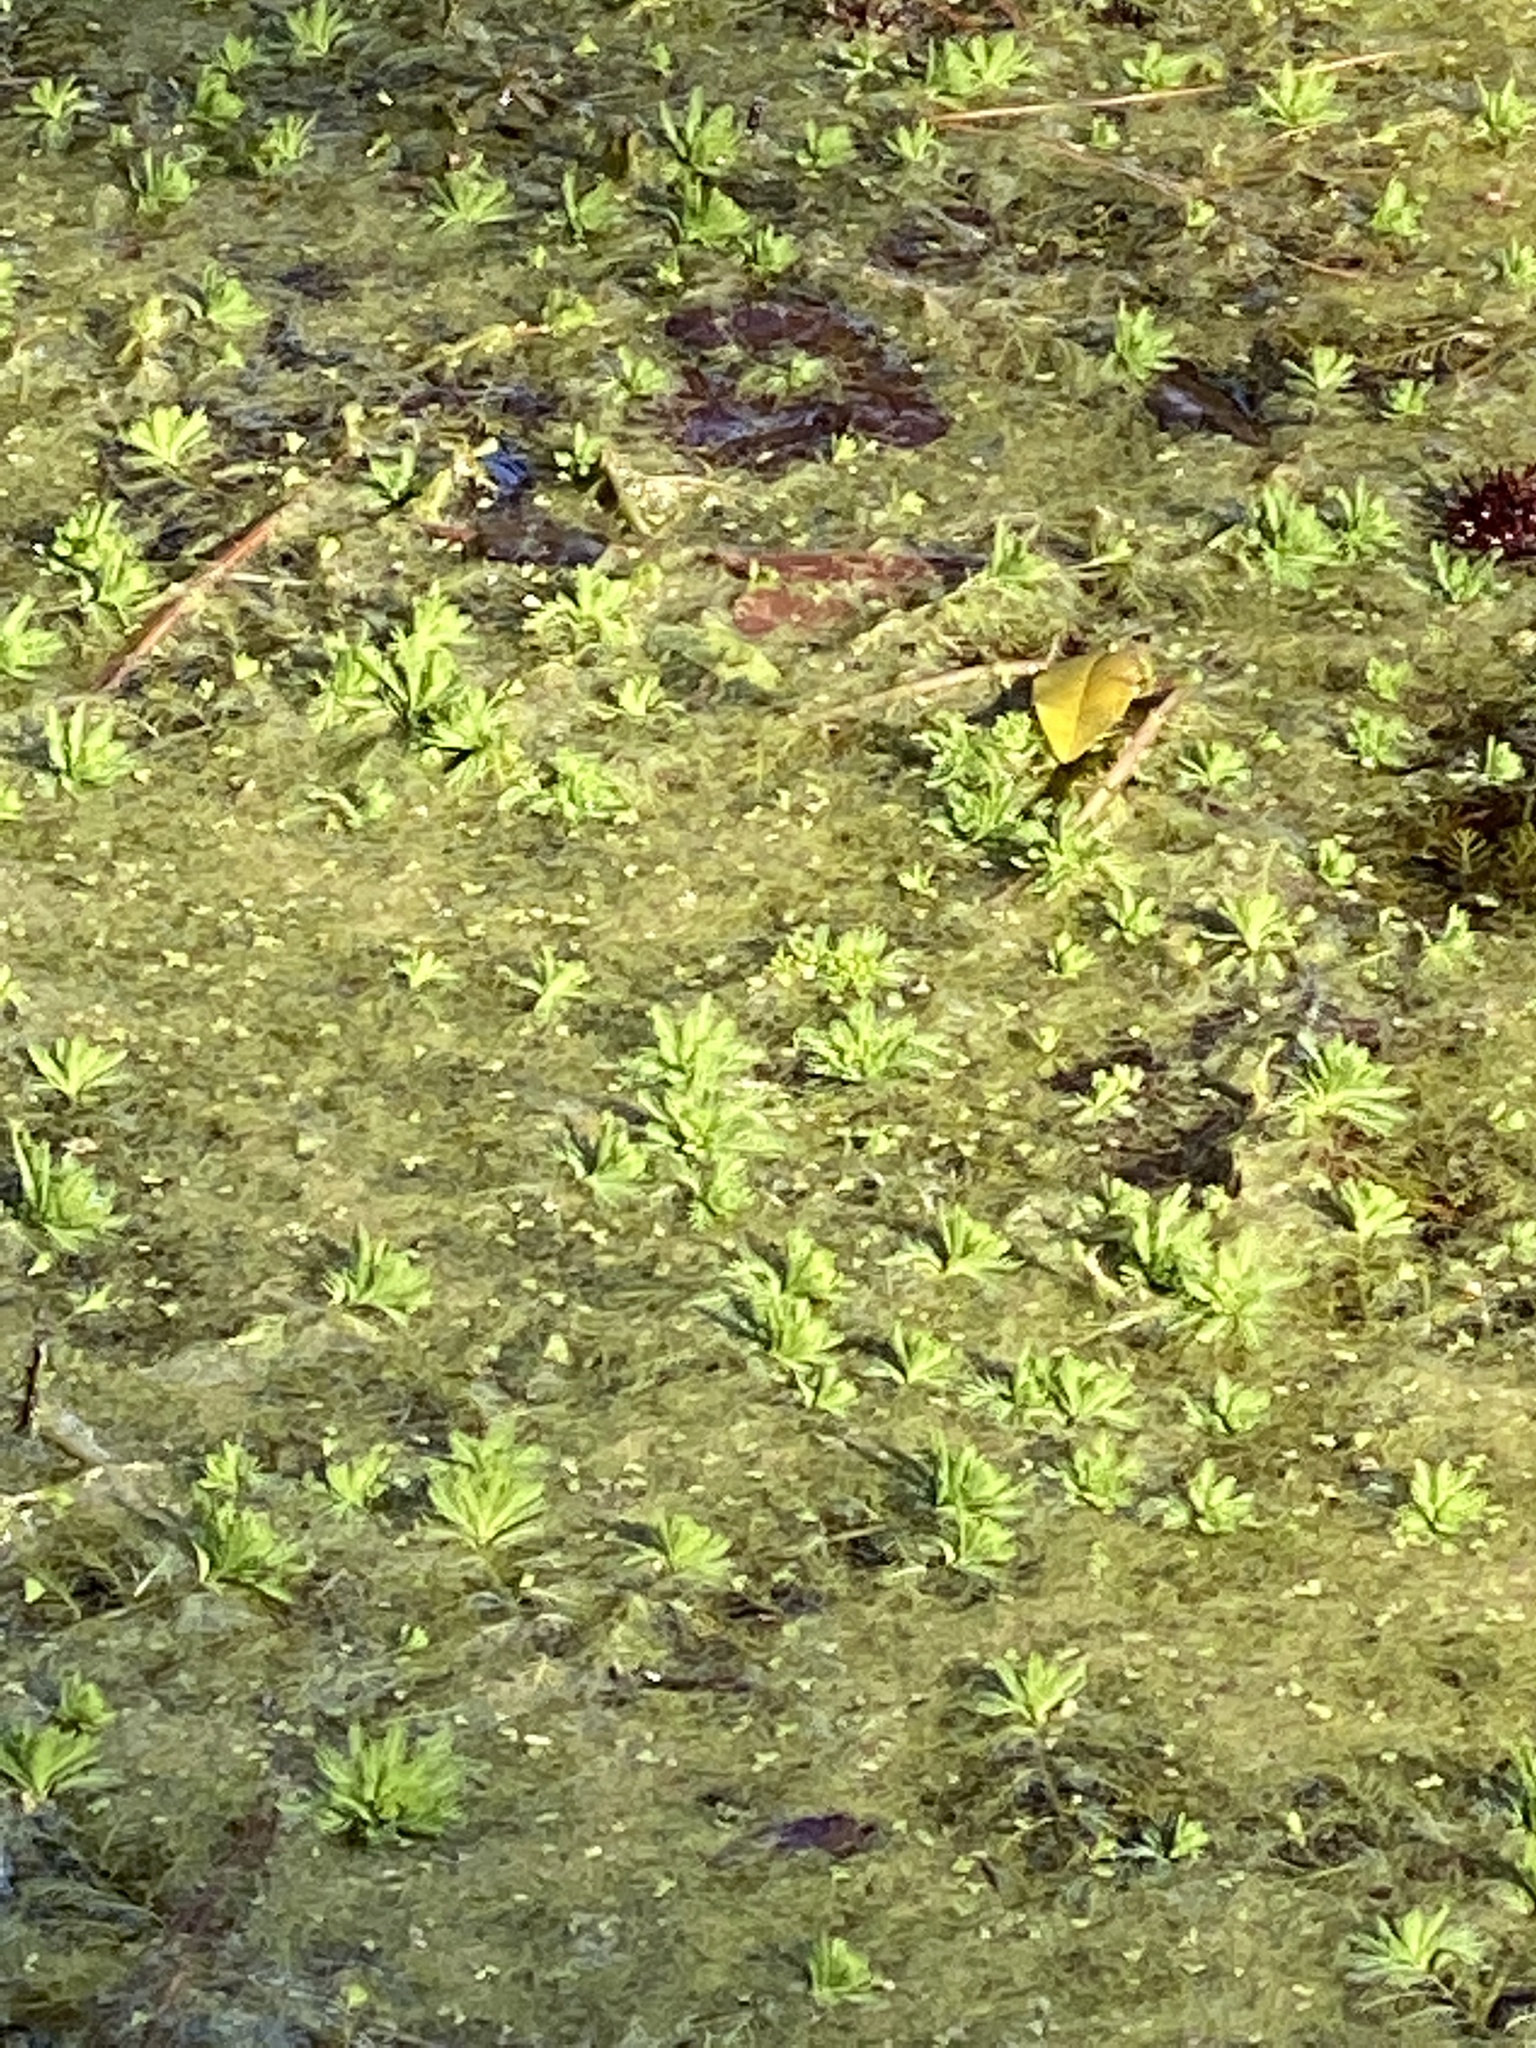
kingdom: Plantae
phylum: Tracheophyta
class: Magnoliopsida
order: Saxifragales
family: Haloragaceae
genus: Myriophyllum
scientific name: Myriophyllum aquaticum
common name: Parrot's feather
